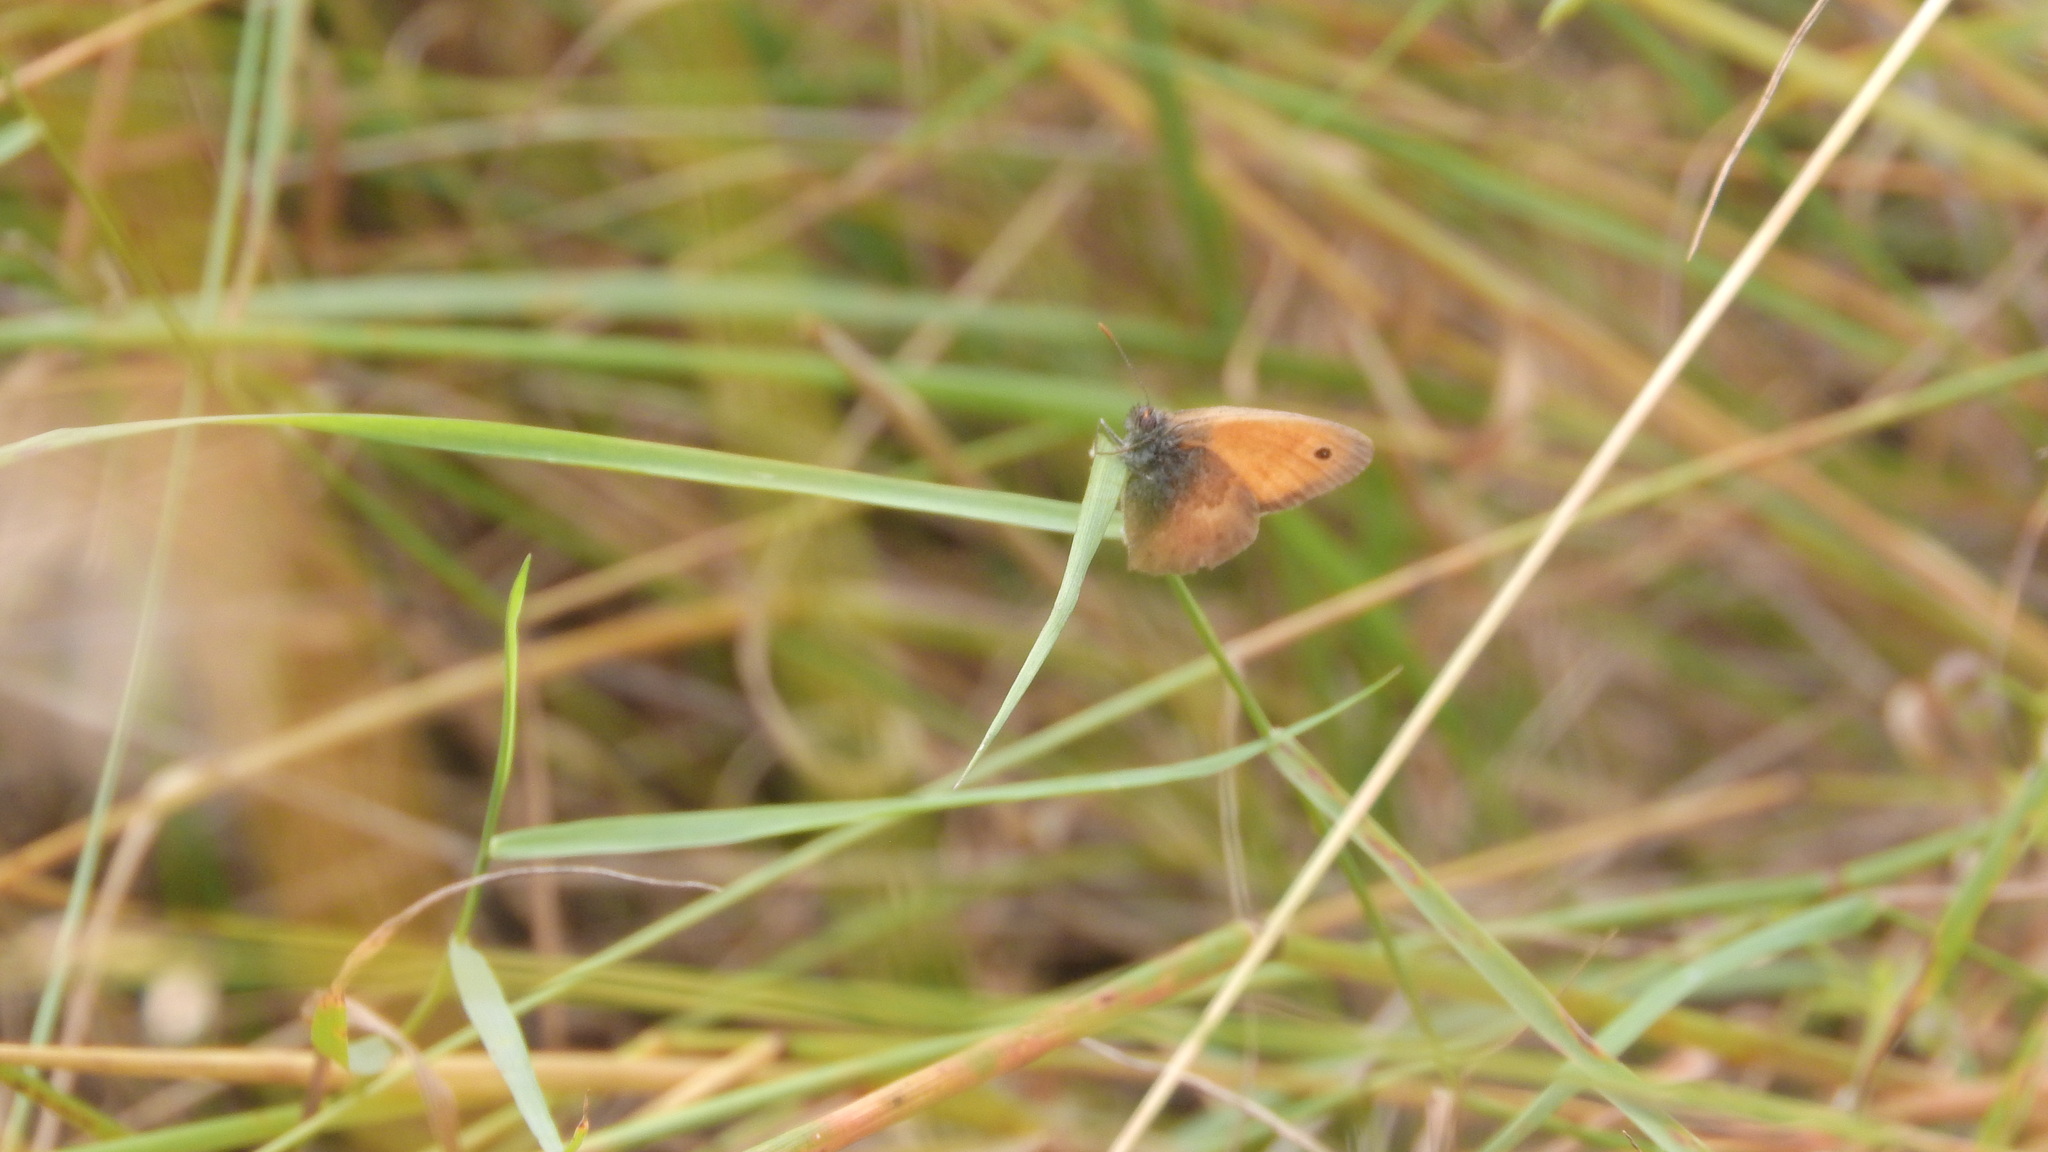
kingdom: Animalia
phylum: Arthropoda
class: Insecta
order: Lepidoptera
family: Nymphalidae
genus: Coenonympha
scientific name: Coenonympha pamphilus
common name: Small heath
